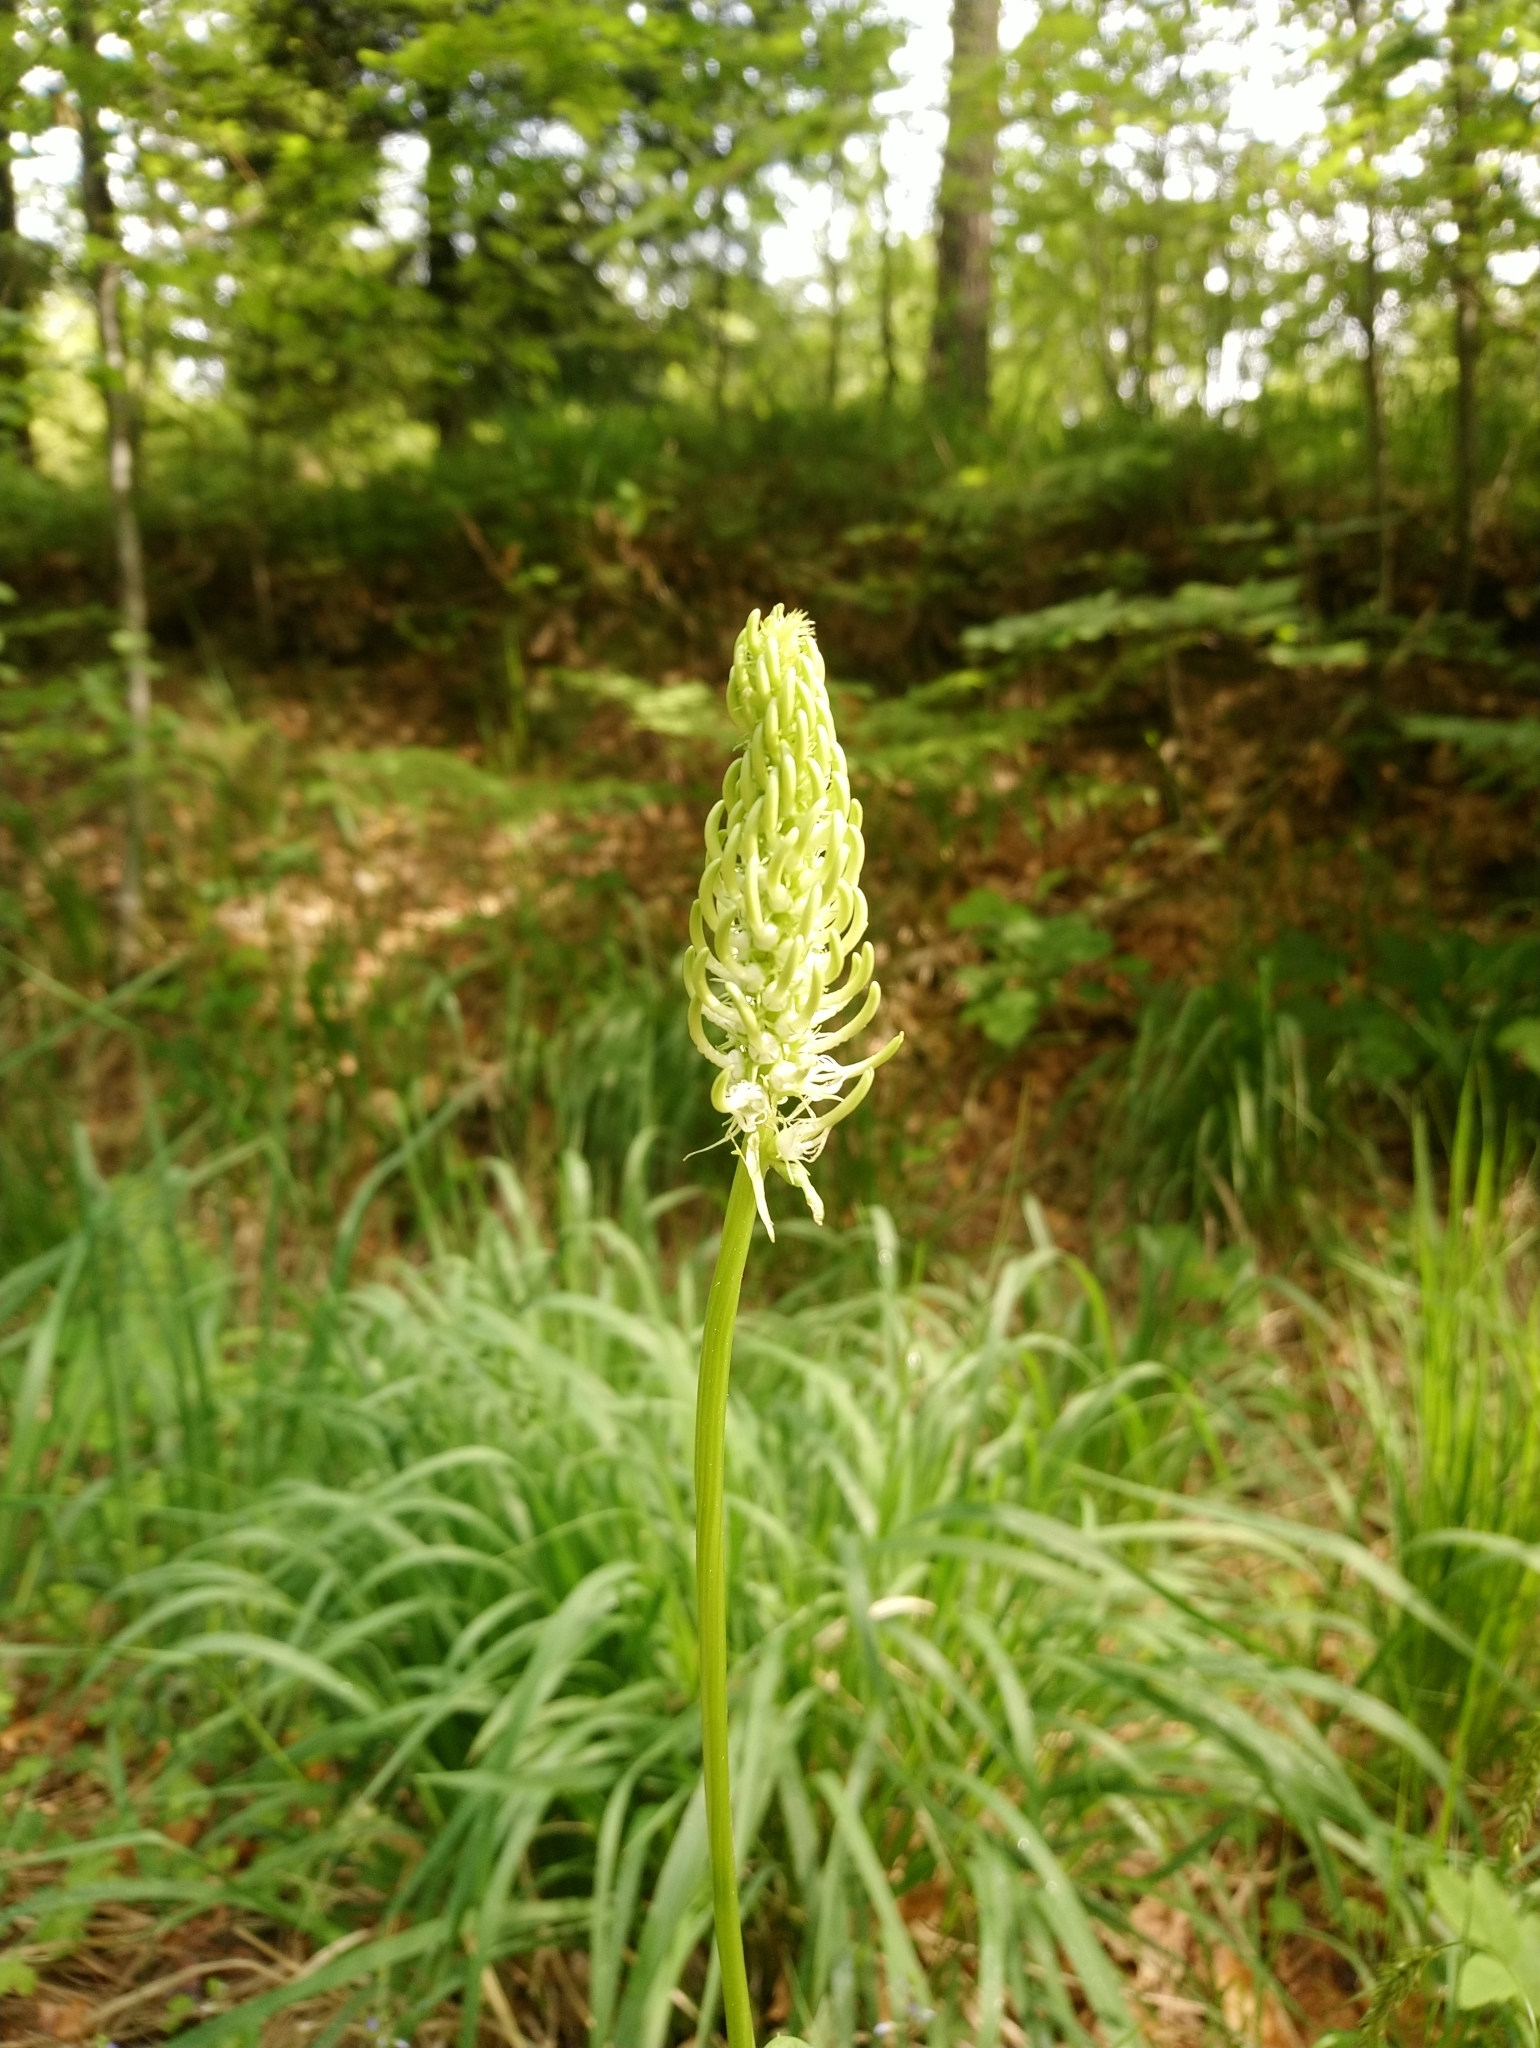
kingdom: Plantae
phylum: Tracheophyta
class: Magnoliopsida
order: Asterales
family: Campanulaceae
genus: Phyteuma
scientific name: Phyteuma spicatum
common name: Spiked rampion
